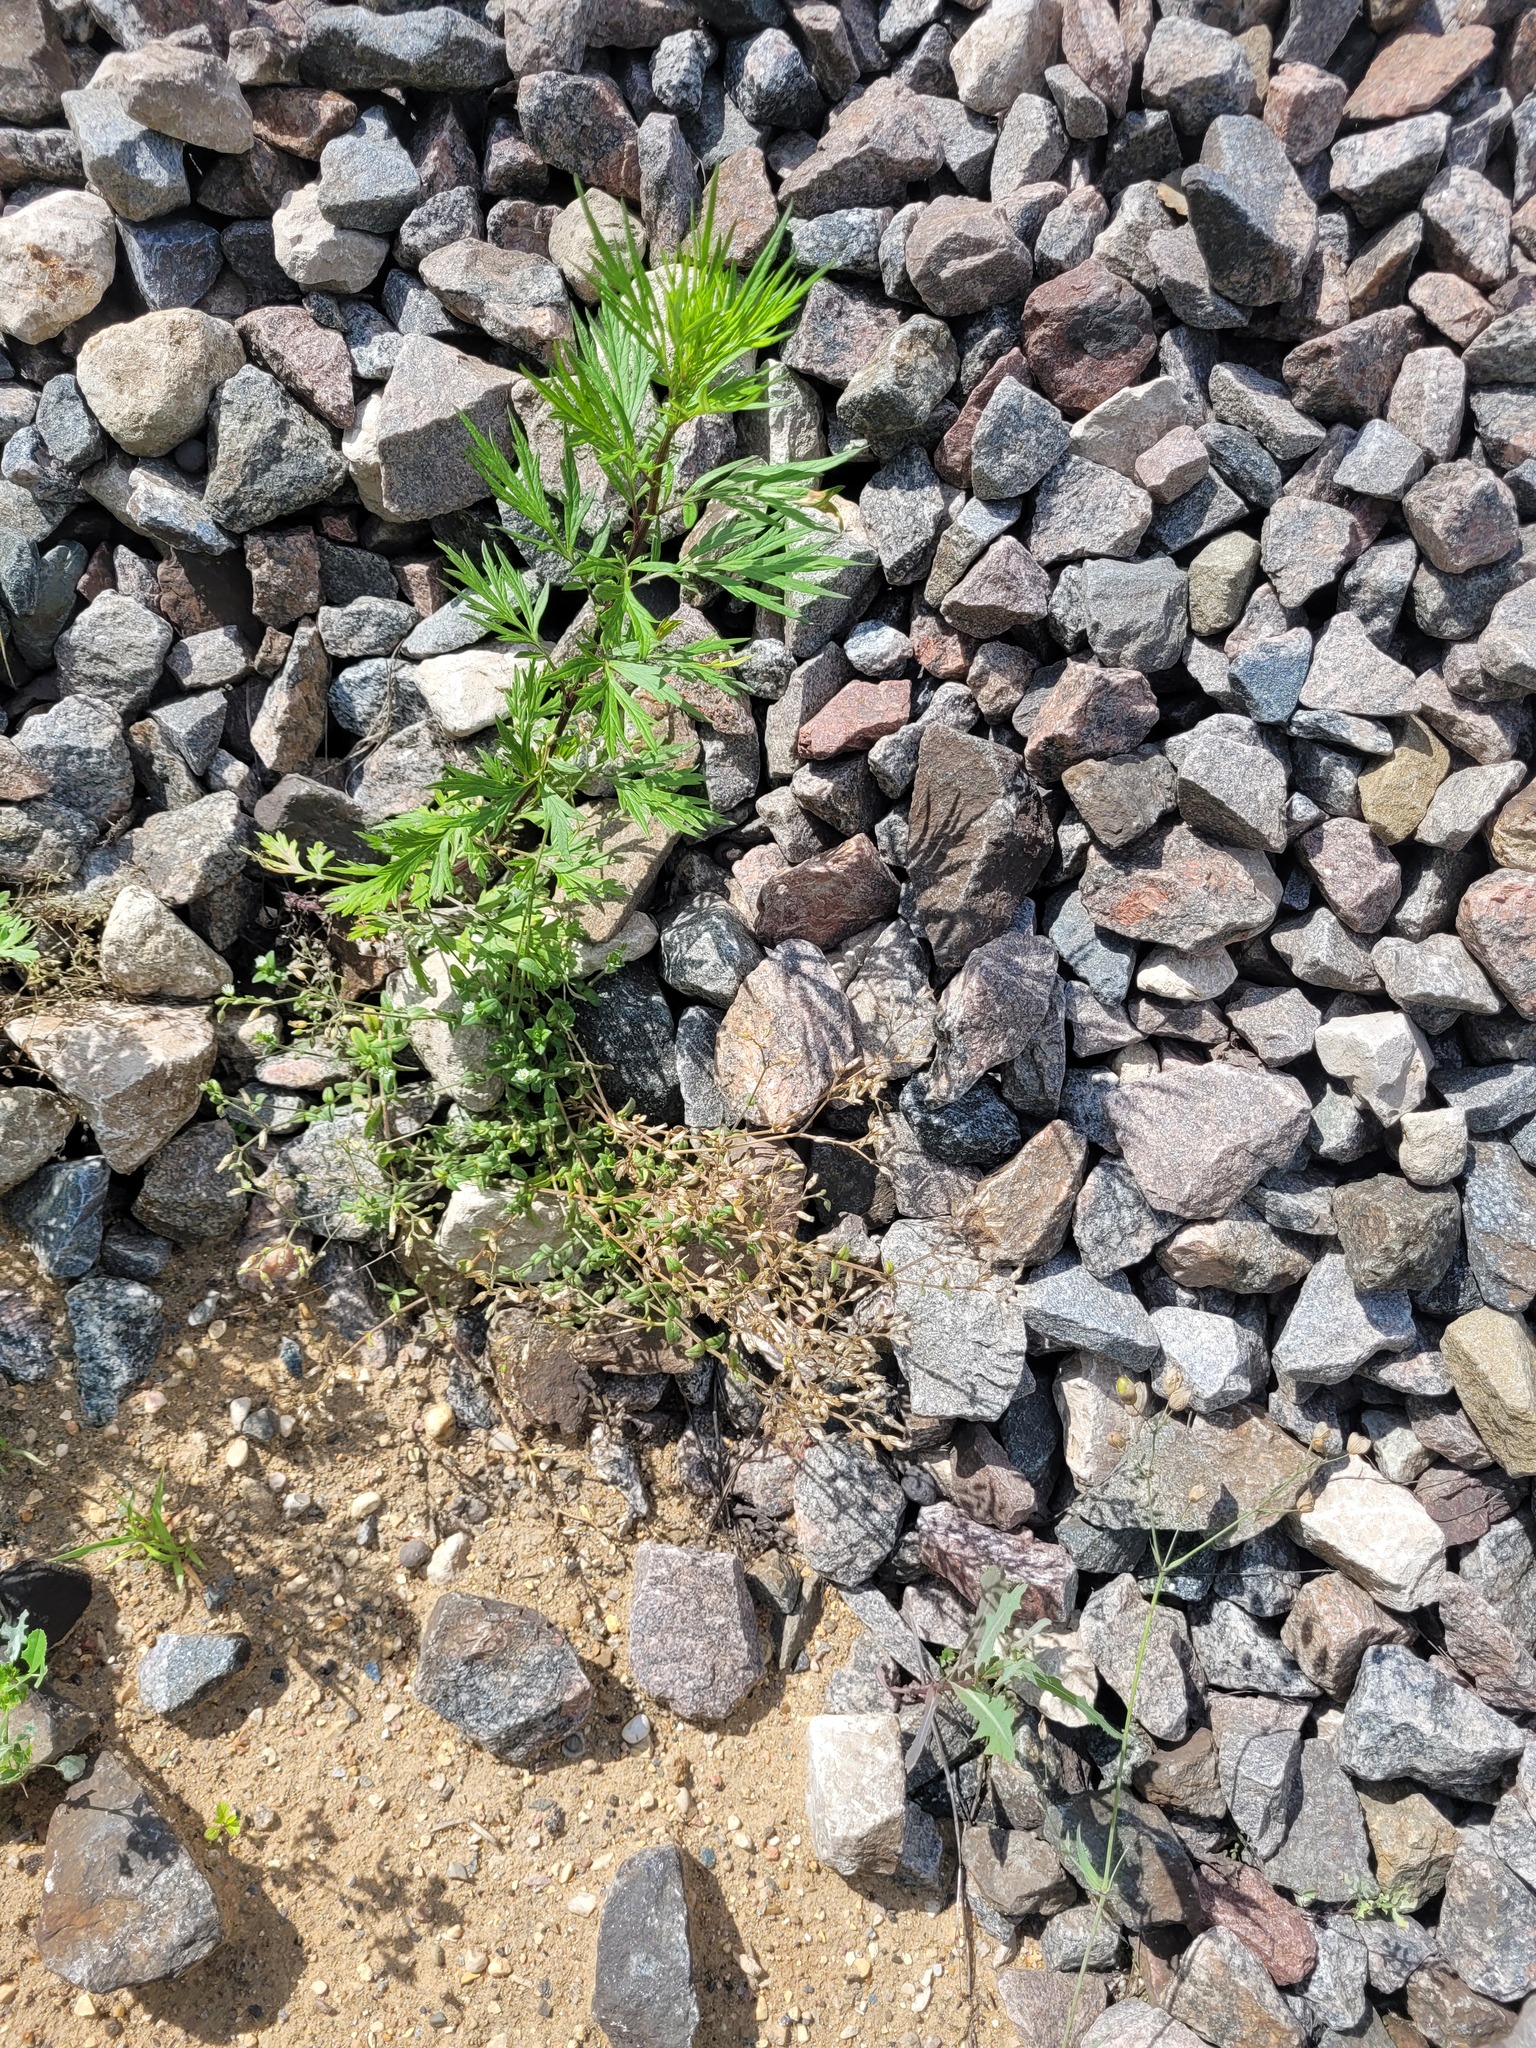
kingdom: Plantae
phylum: Tracheophyta
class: Magnoliopsida
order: Caryophyllales
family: Caryophyllaceae
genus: Cerastium
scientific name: Cerastium holosteoides
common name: Big chickweed
